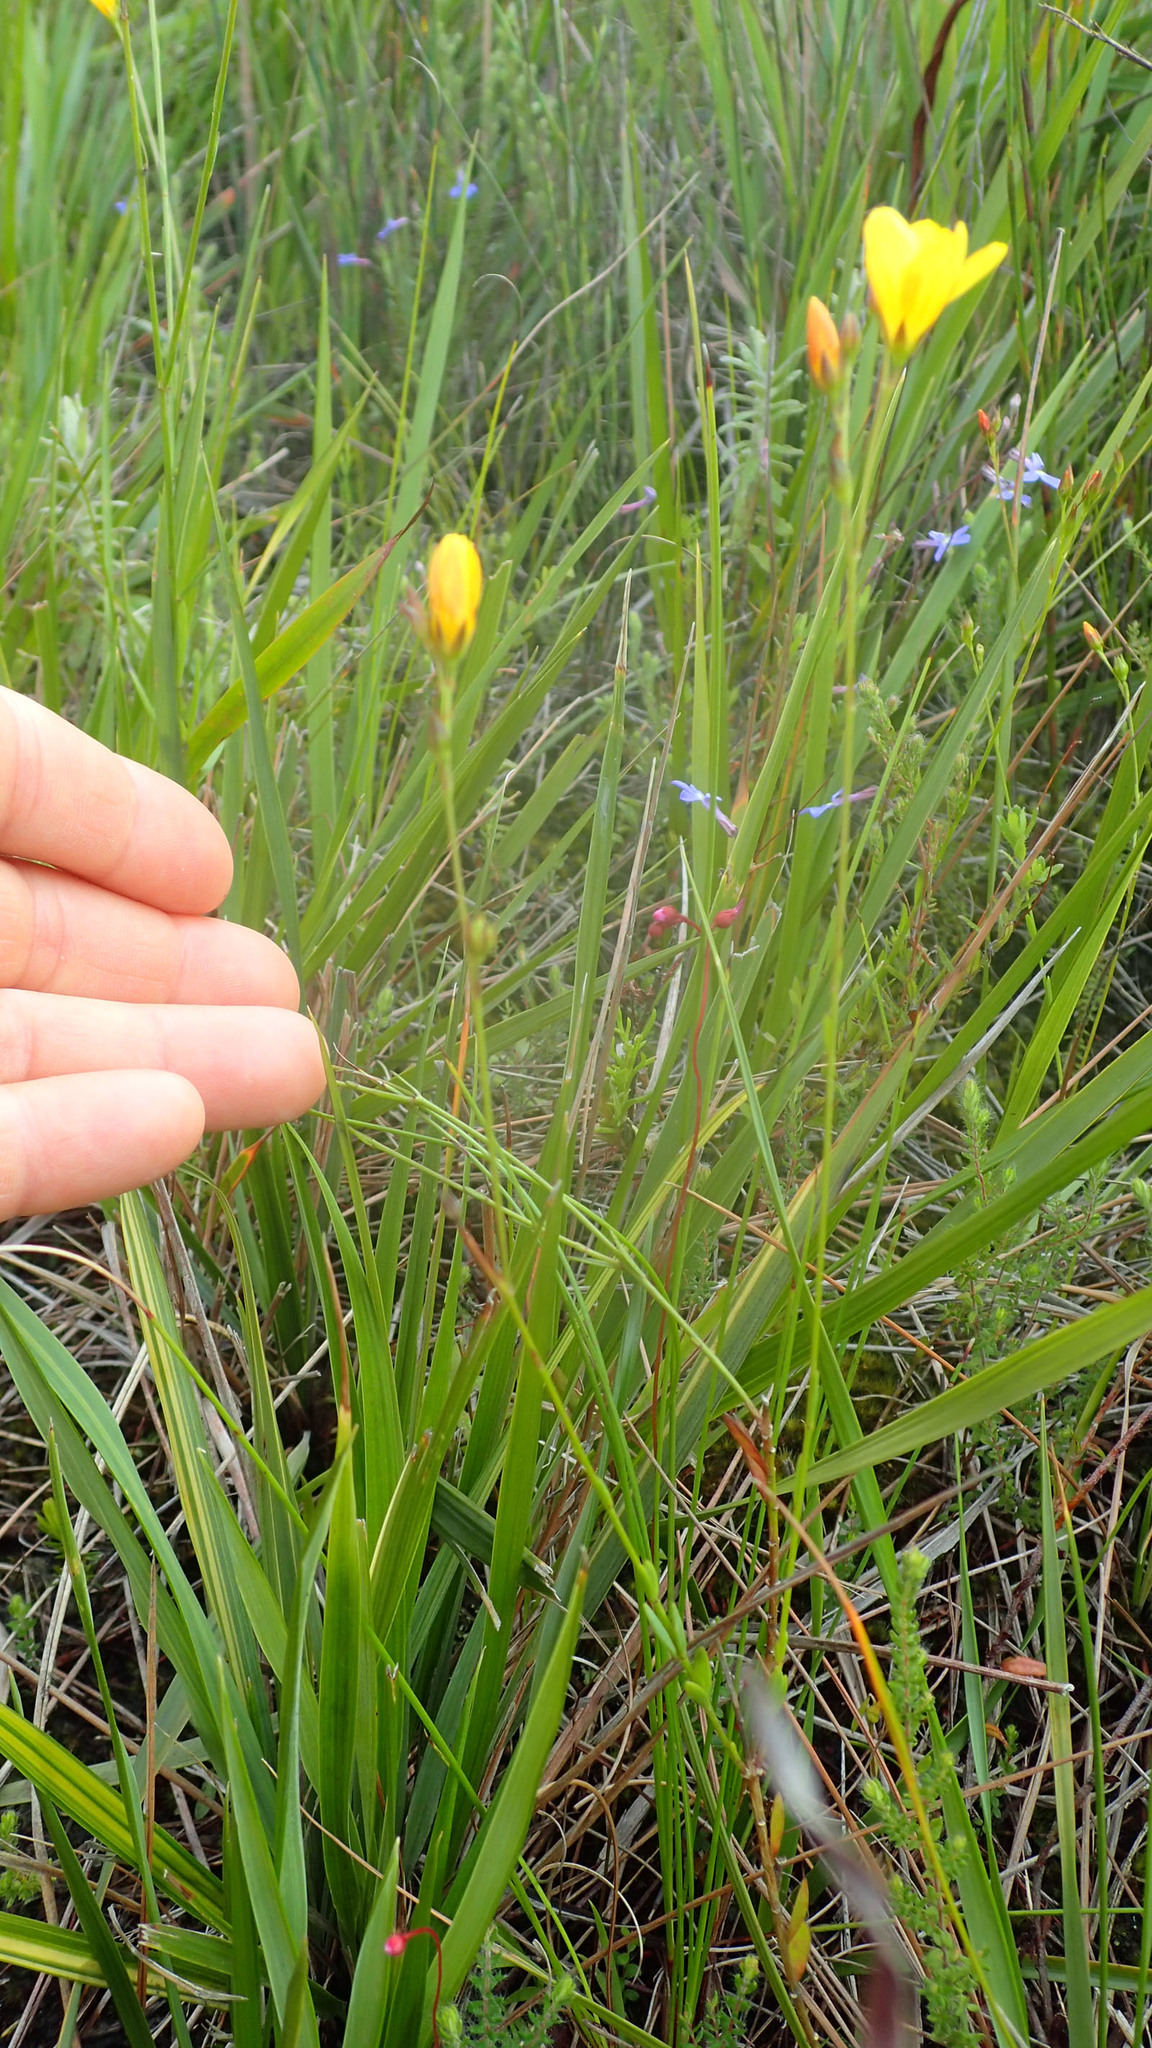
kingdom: Plantae
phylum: Tracheophyta
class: Magnoliopsida
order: Malpighiales
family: Linaceae
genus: Linum
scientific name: Linum africanum
